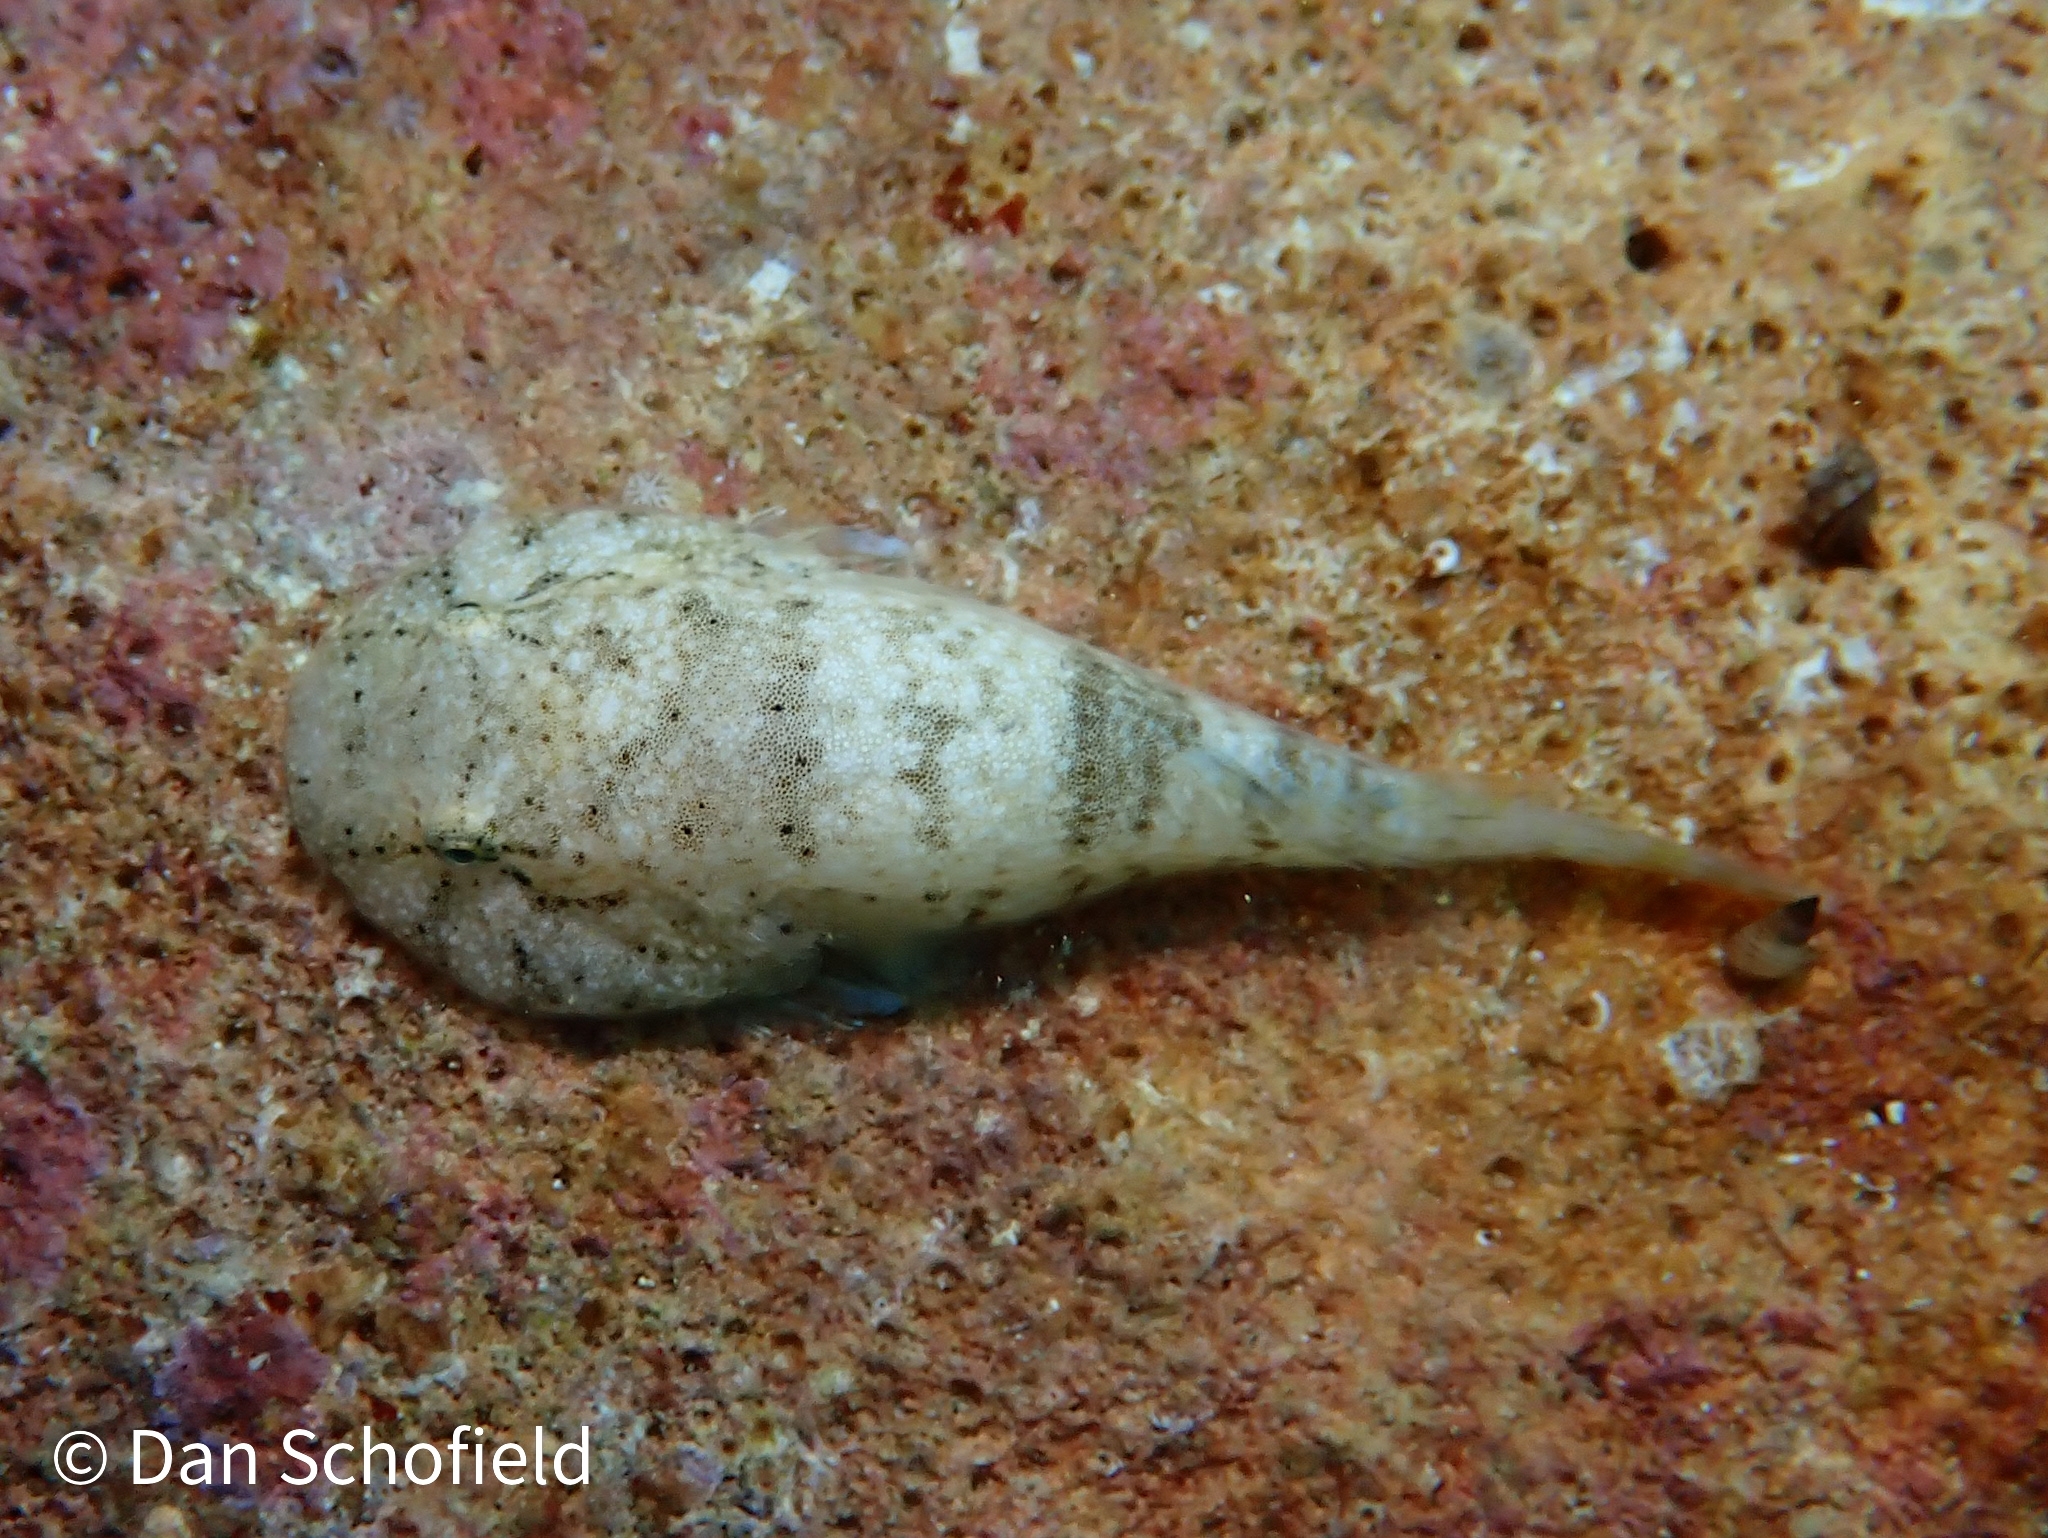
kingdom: Animalia
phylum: Chordata
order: Gobiesociformes
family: Gobiesocidae
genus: Gobiesox
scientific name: Gobiesox punctulatus
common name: Stippled clingfish
